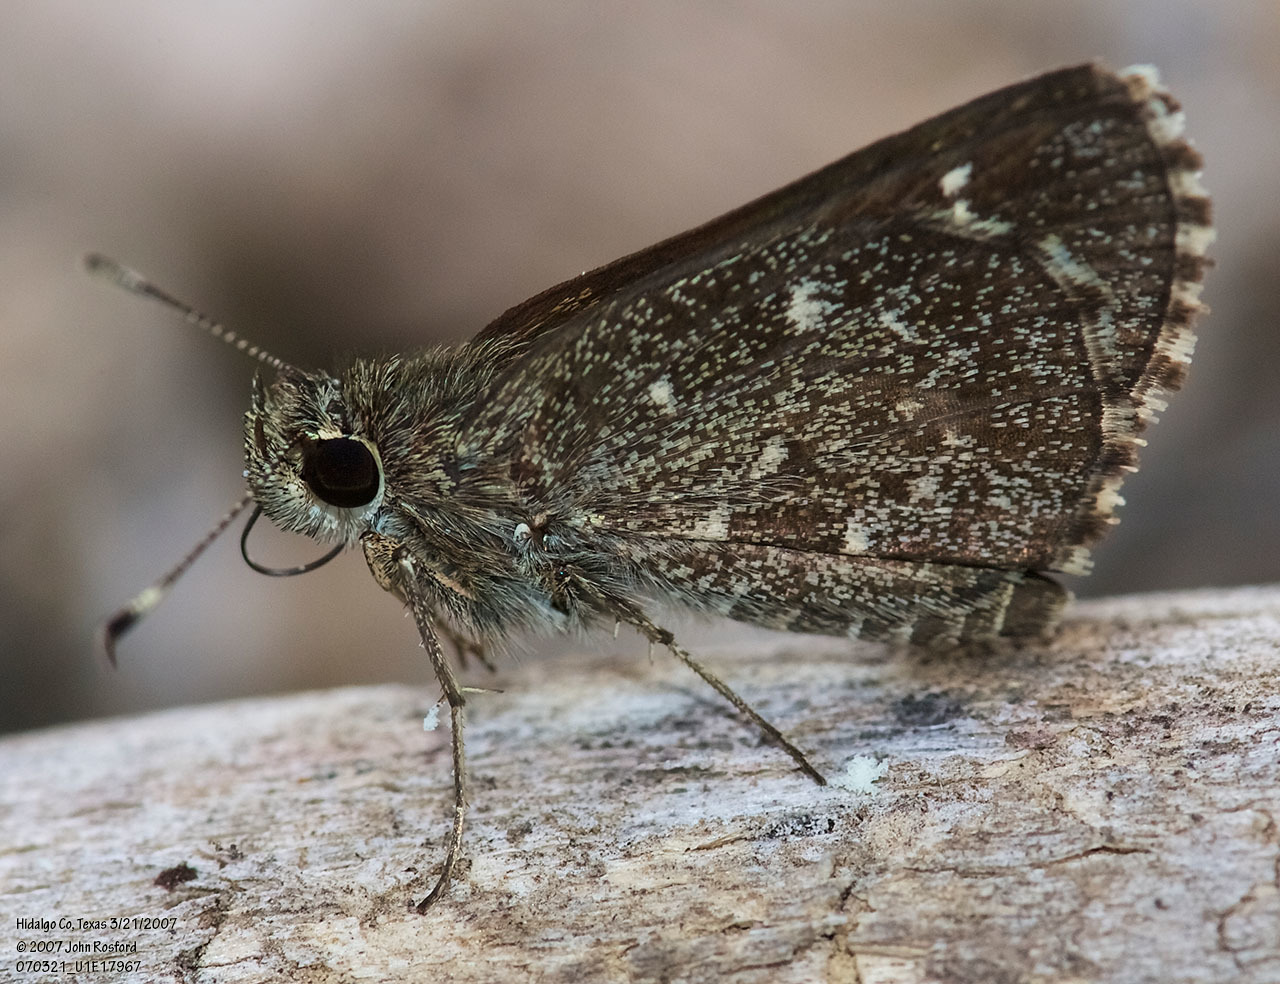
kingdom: Animalia
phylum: Arthropoda
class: Insecta
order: Lepidoptera
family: Hesperiidae
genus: Mastor
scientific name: Mastor celia
